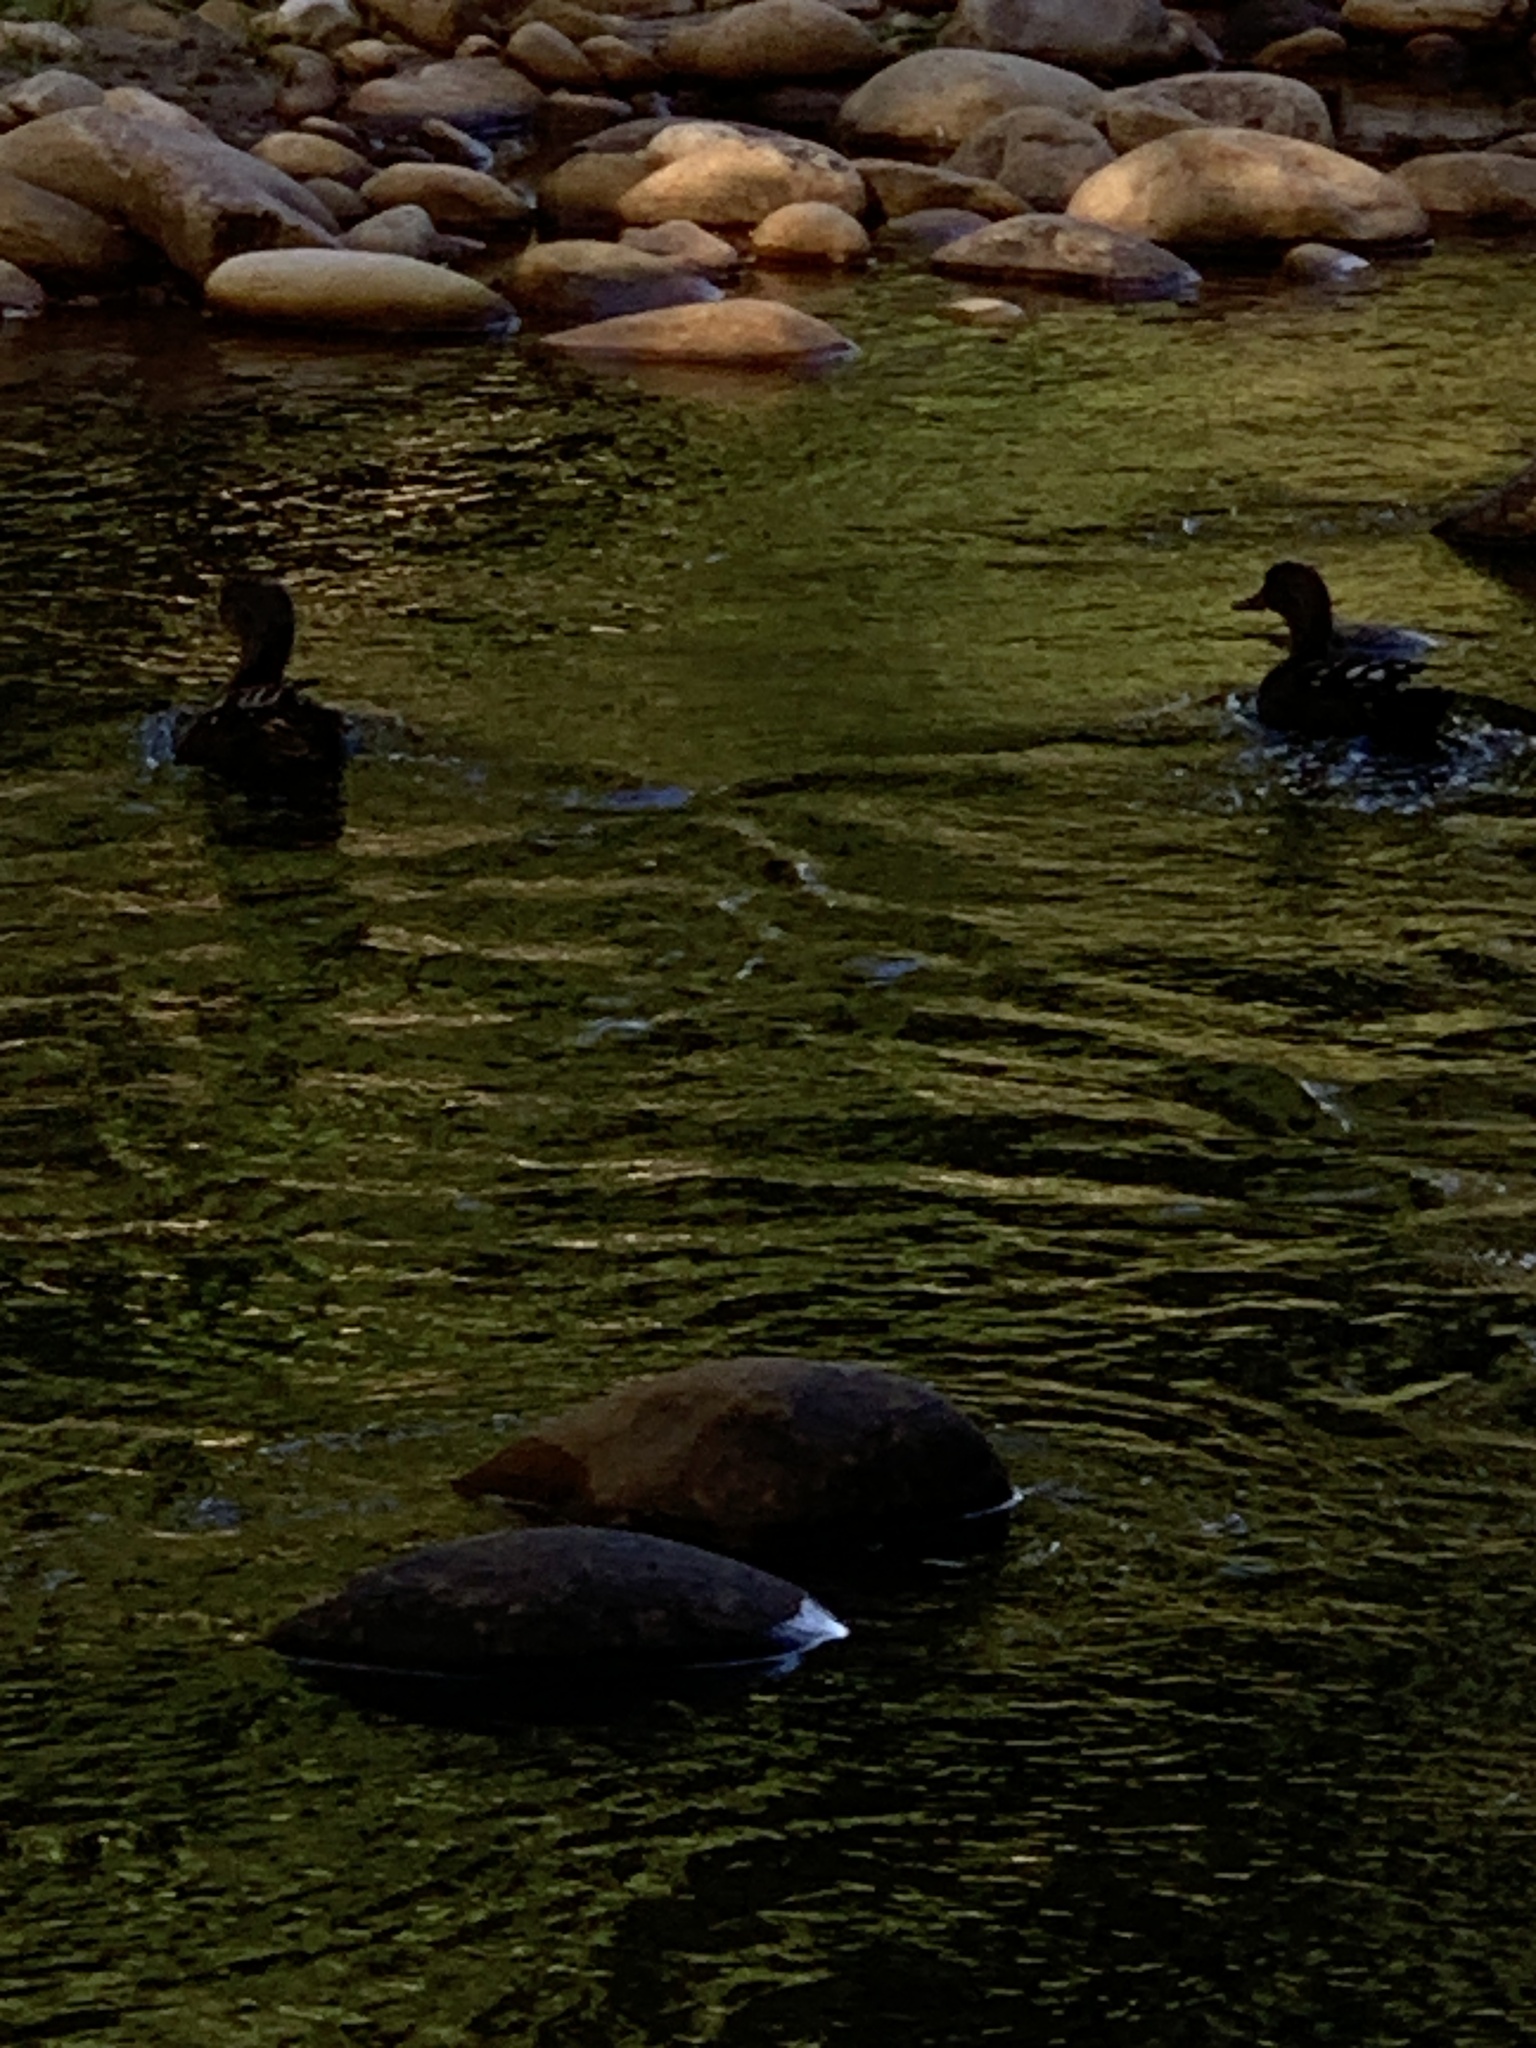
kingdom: Animalia
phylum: Chordata
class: Aves
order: Anseriformes
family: Anatidae
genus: Anas
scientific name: Anas sparsa
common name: African black duck
